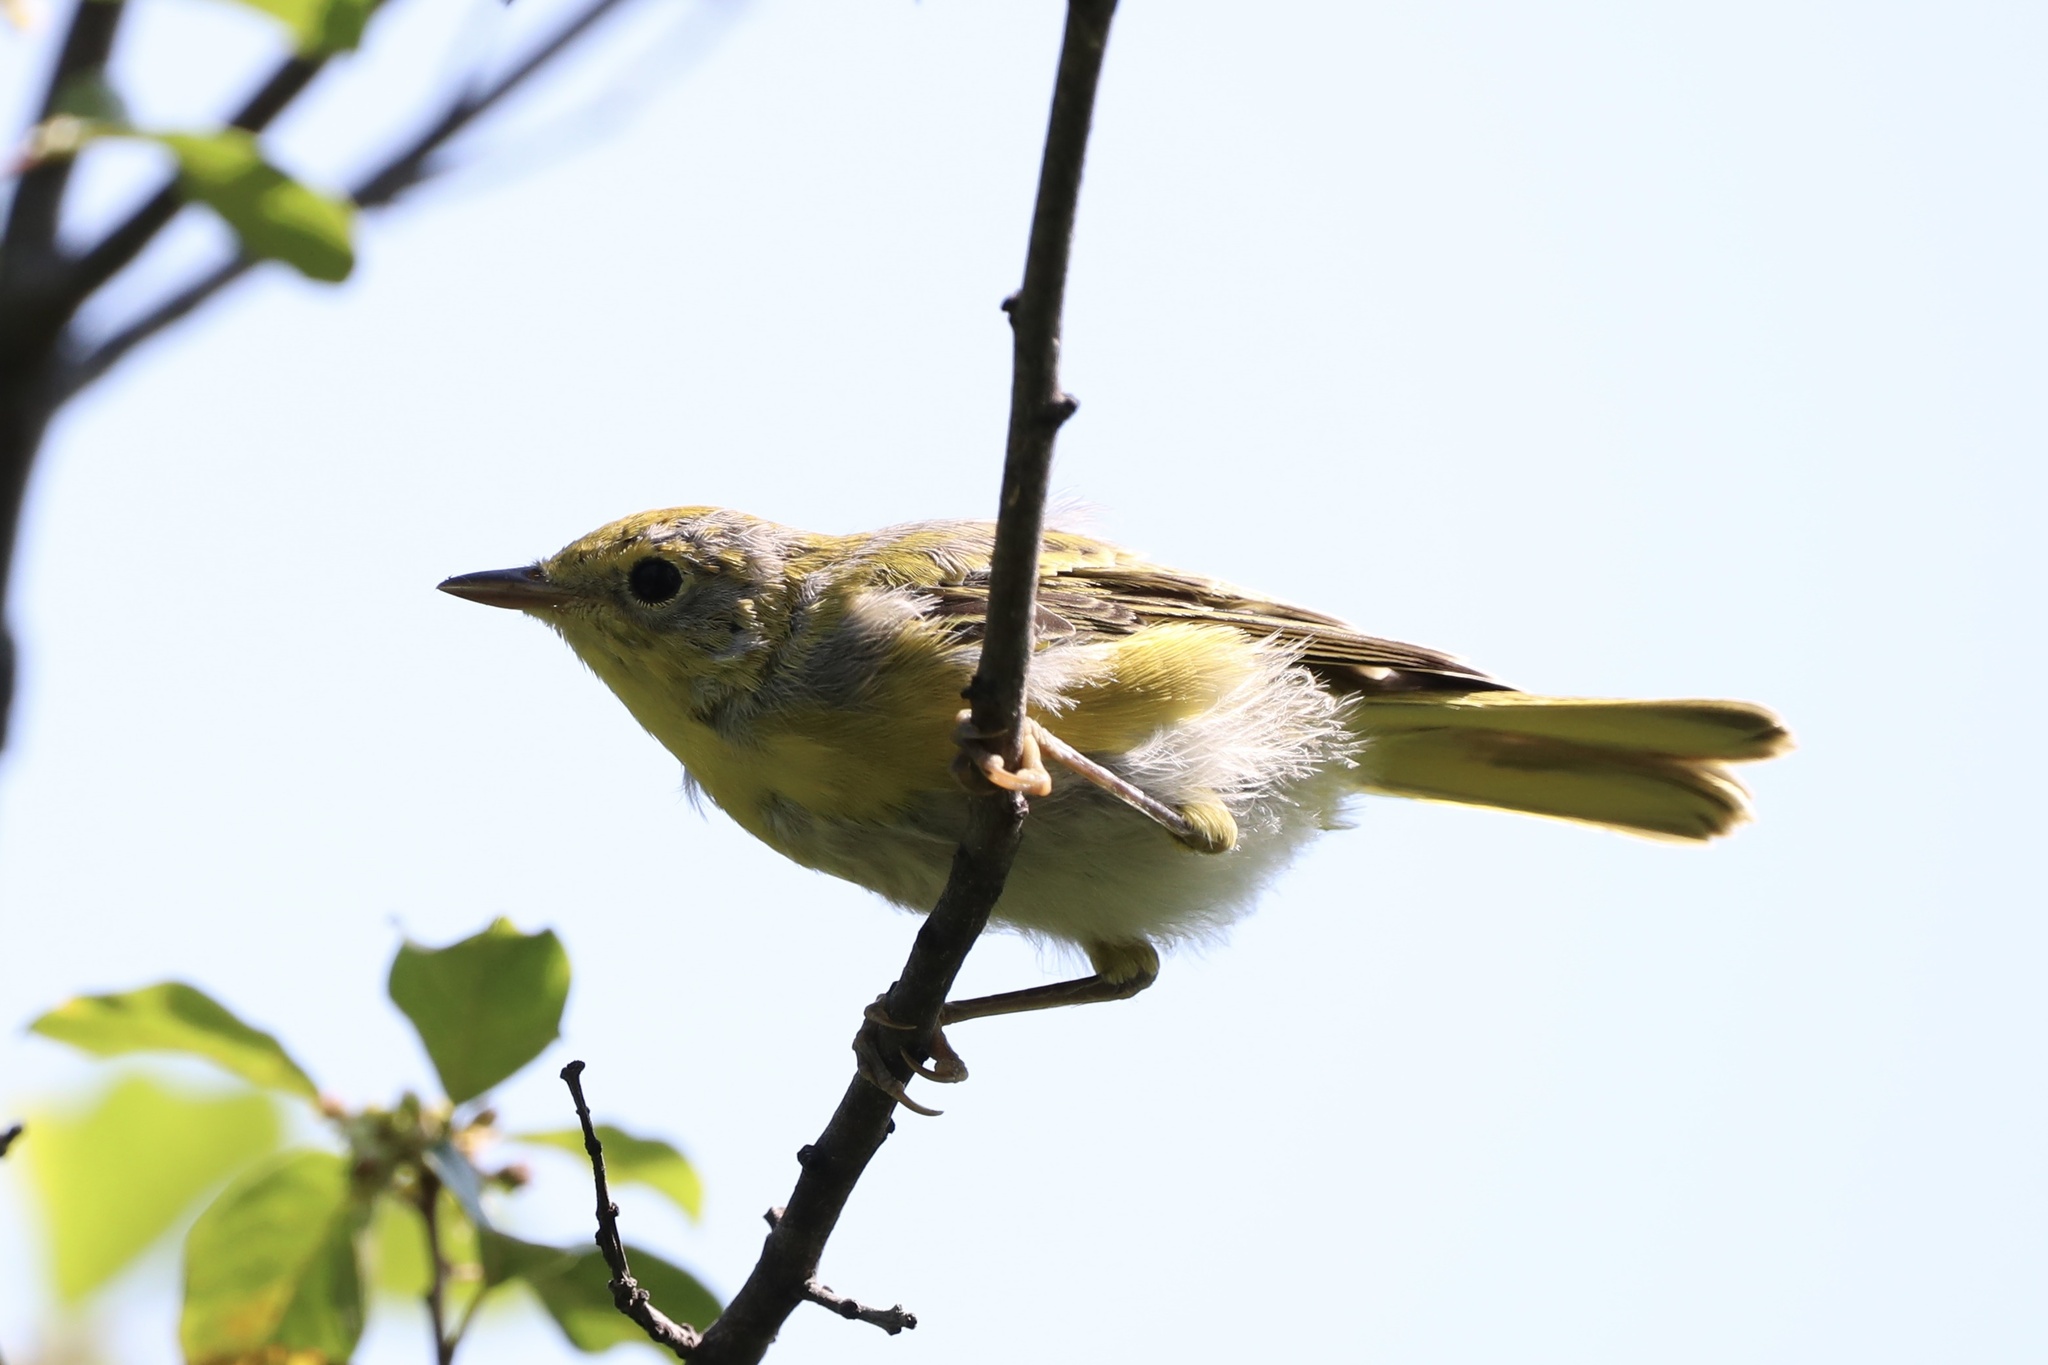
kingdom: Animalia
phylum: Chordata
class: Aves
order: Passeriformes
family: Parulidae
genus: Setophaga
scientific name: Setophaga petechia
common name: Yellow warbler
